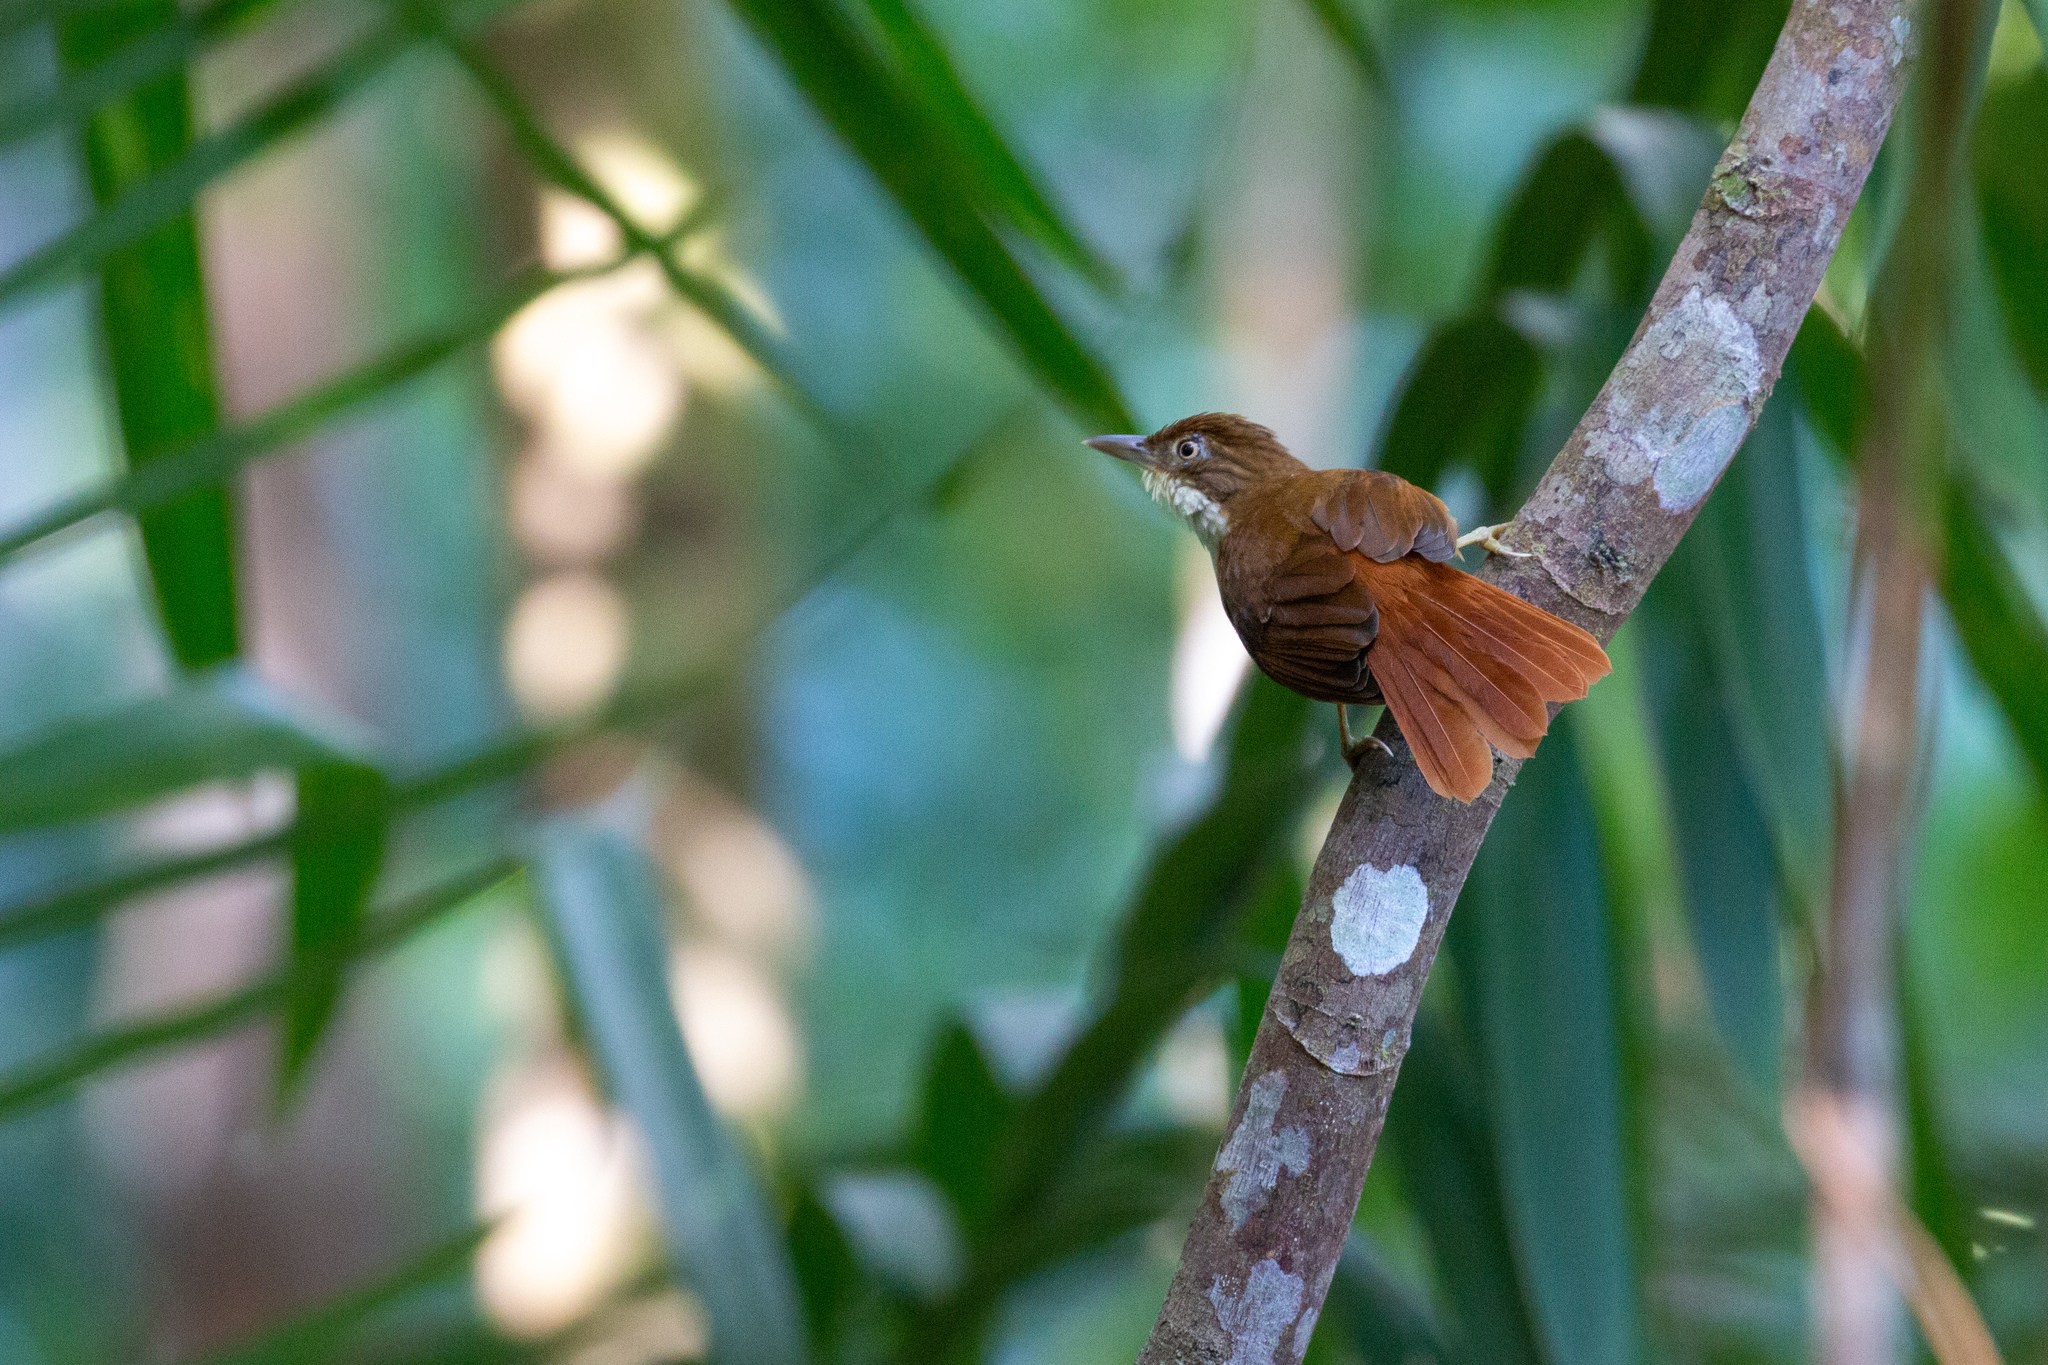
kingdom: Animalia
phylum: Chordata
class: Aves
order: Passeriformes
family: Furnariidae
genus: Automolus
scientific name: Automolus lammi
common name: Pernambuco foliage-gleaner
